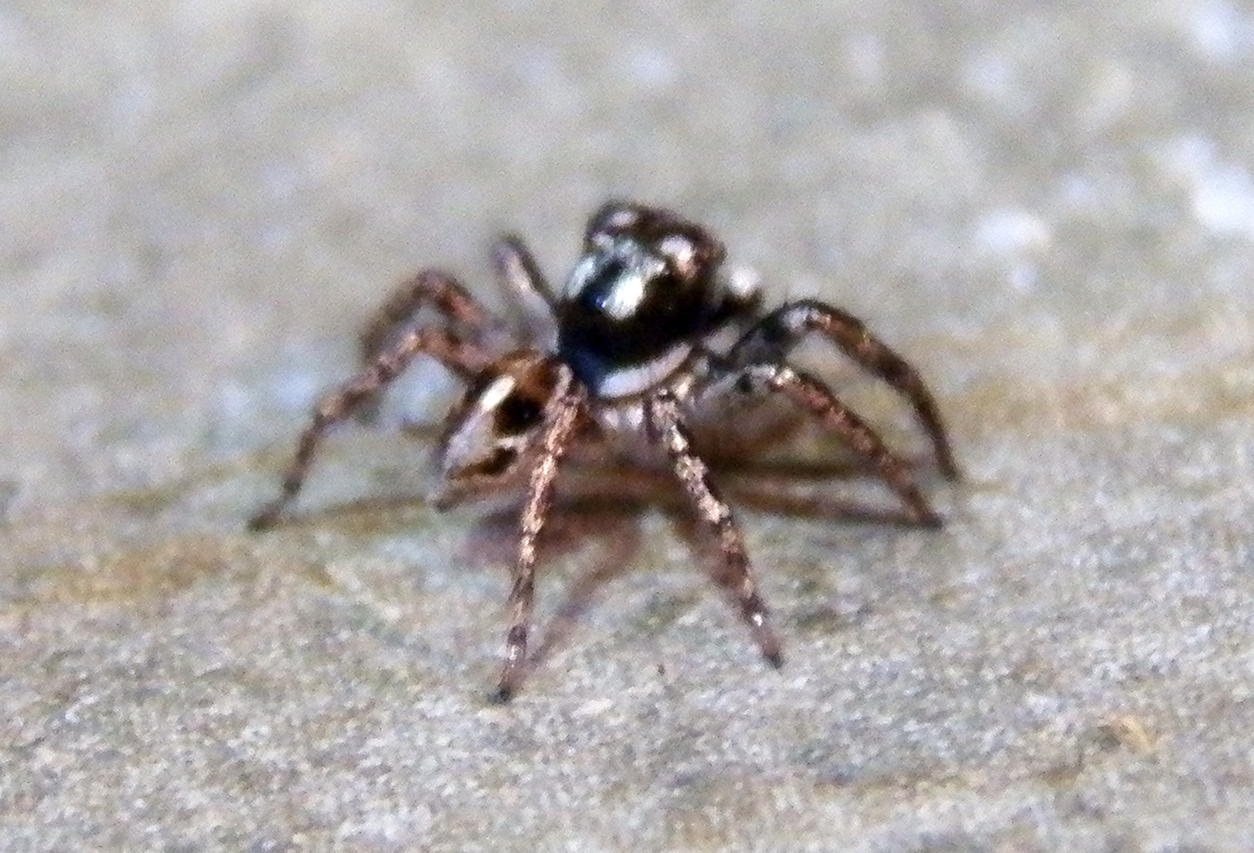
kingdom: Animalia
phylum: Arthropoda
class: Arachnida
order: Araneae
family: Salticidae
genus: Anasaitis
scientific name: Anasaitis canosa
